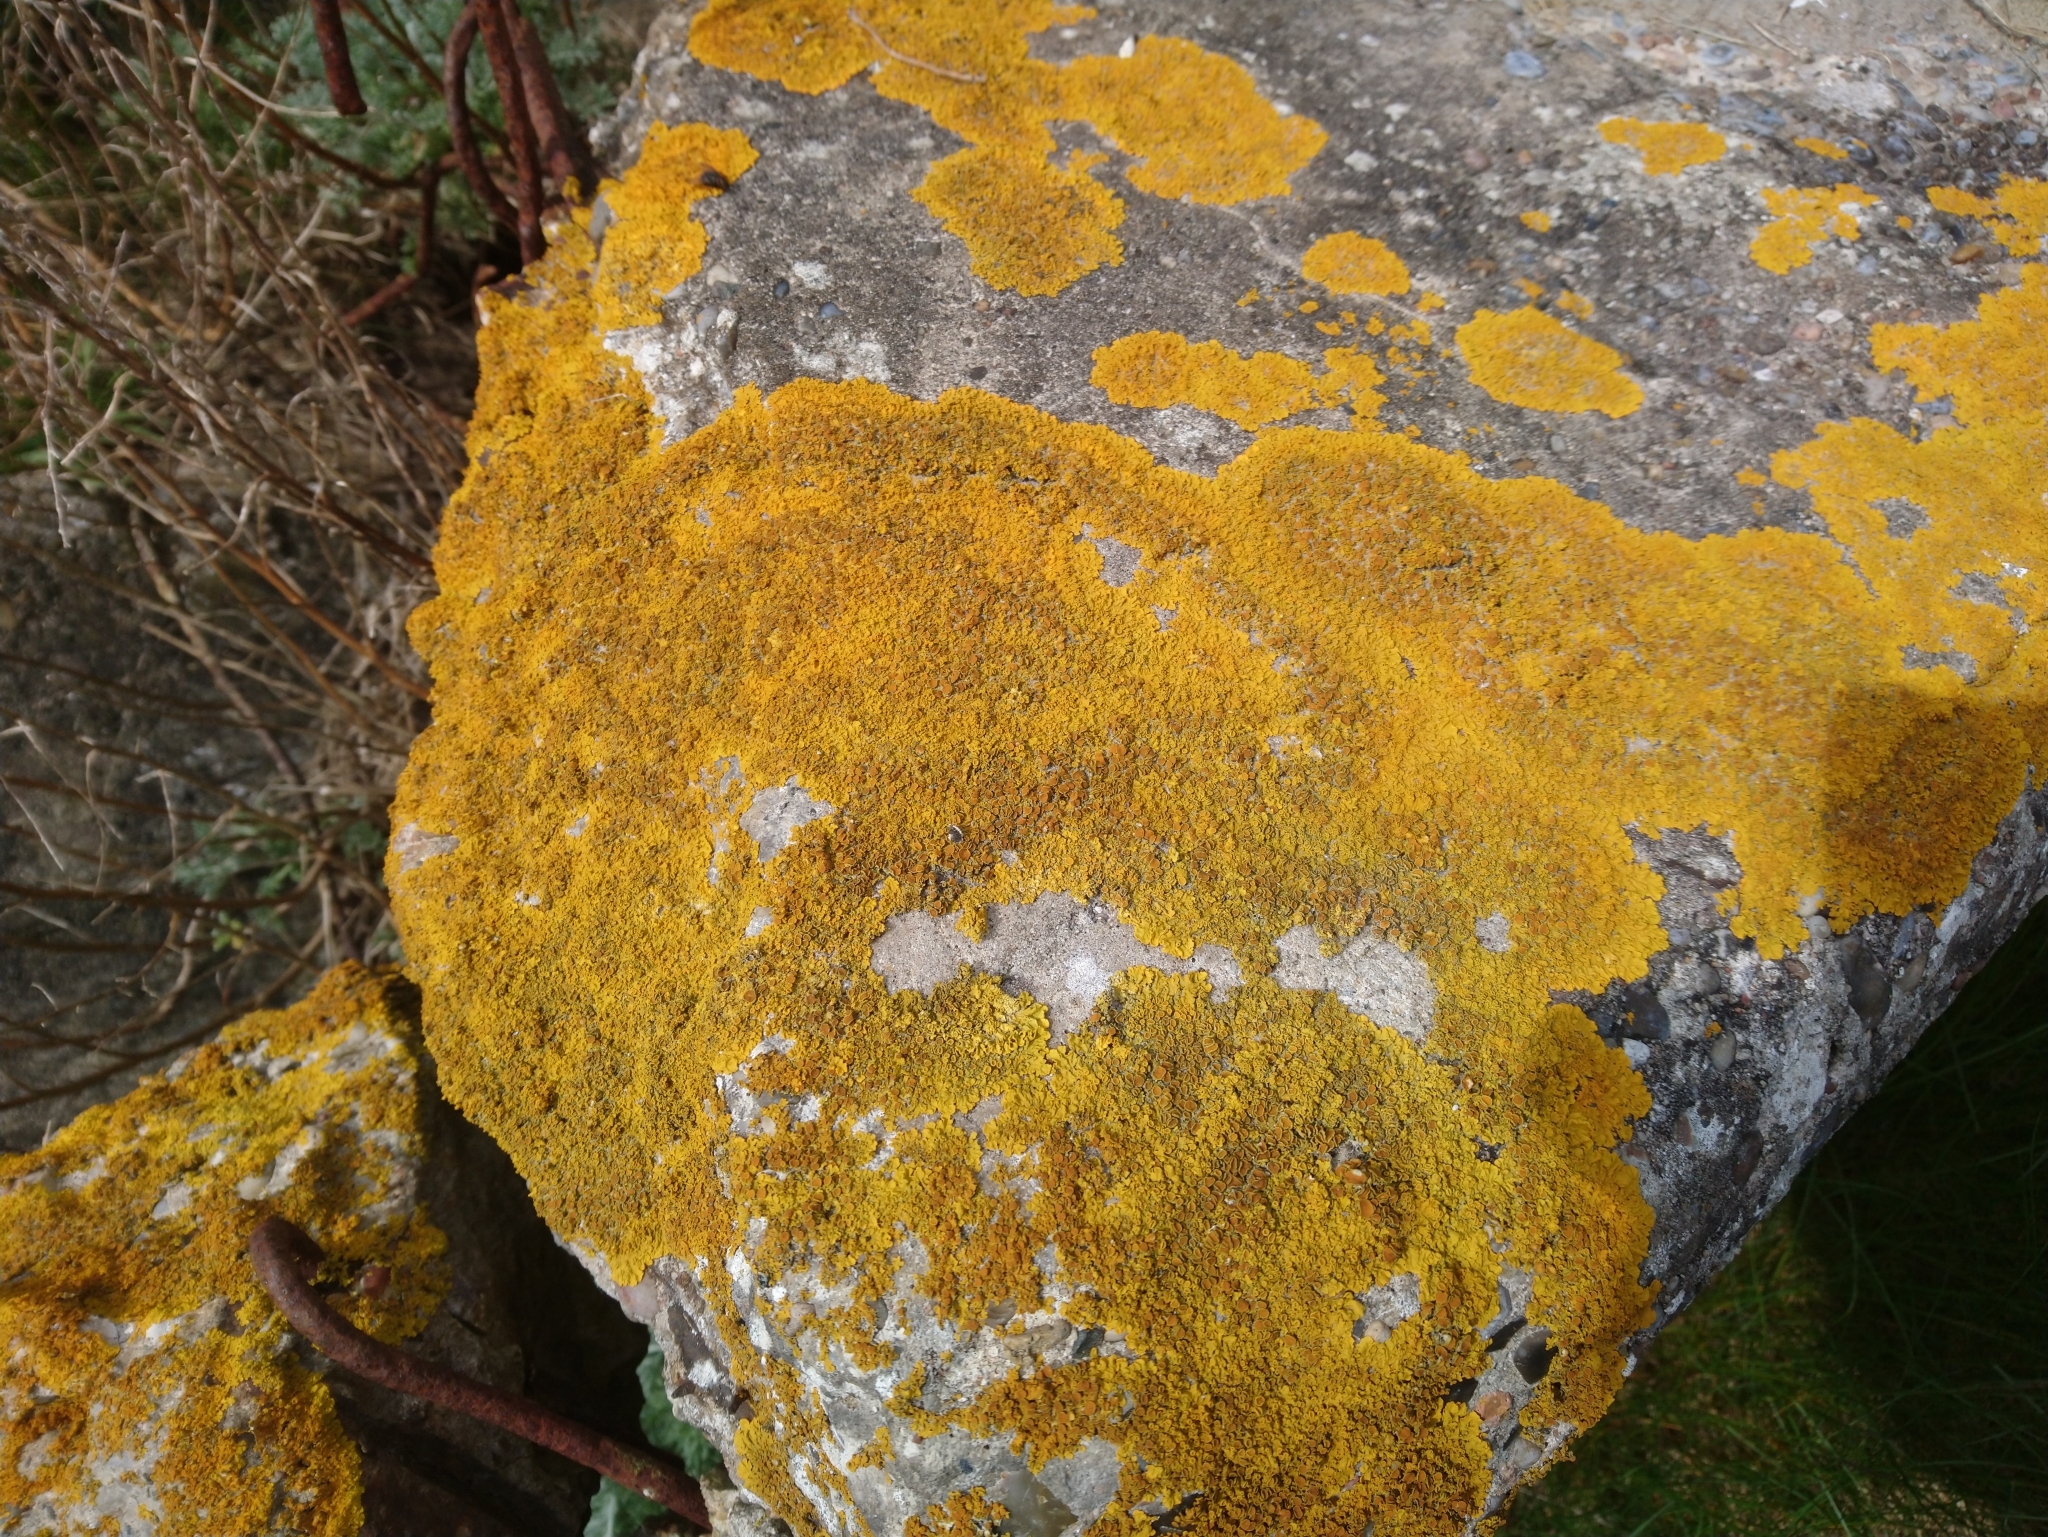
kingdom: Fungi
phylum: Ascomycota
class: Lecanoromycetes
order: Teloschistales
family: Teloschistaceae
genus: Xanthoria
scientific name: Xanthoria parietina
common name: Common orange lichen
